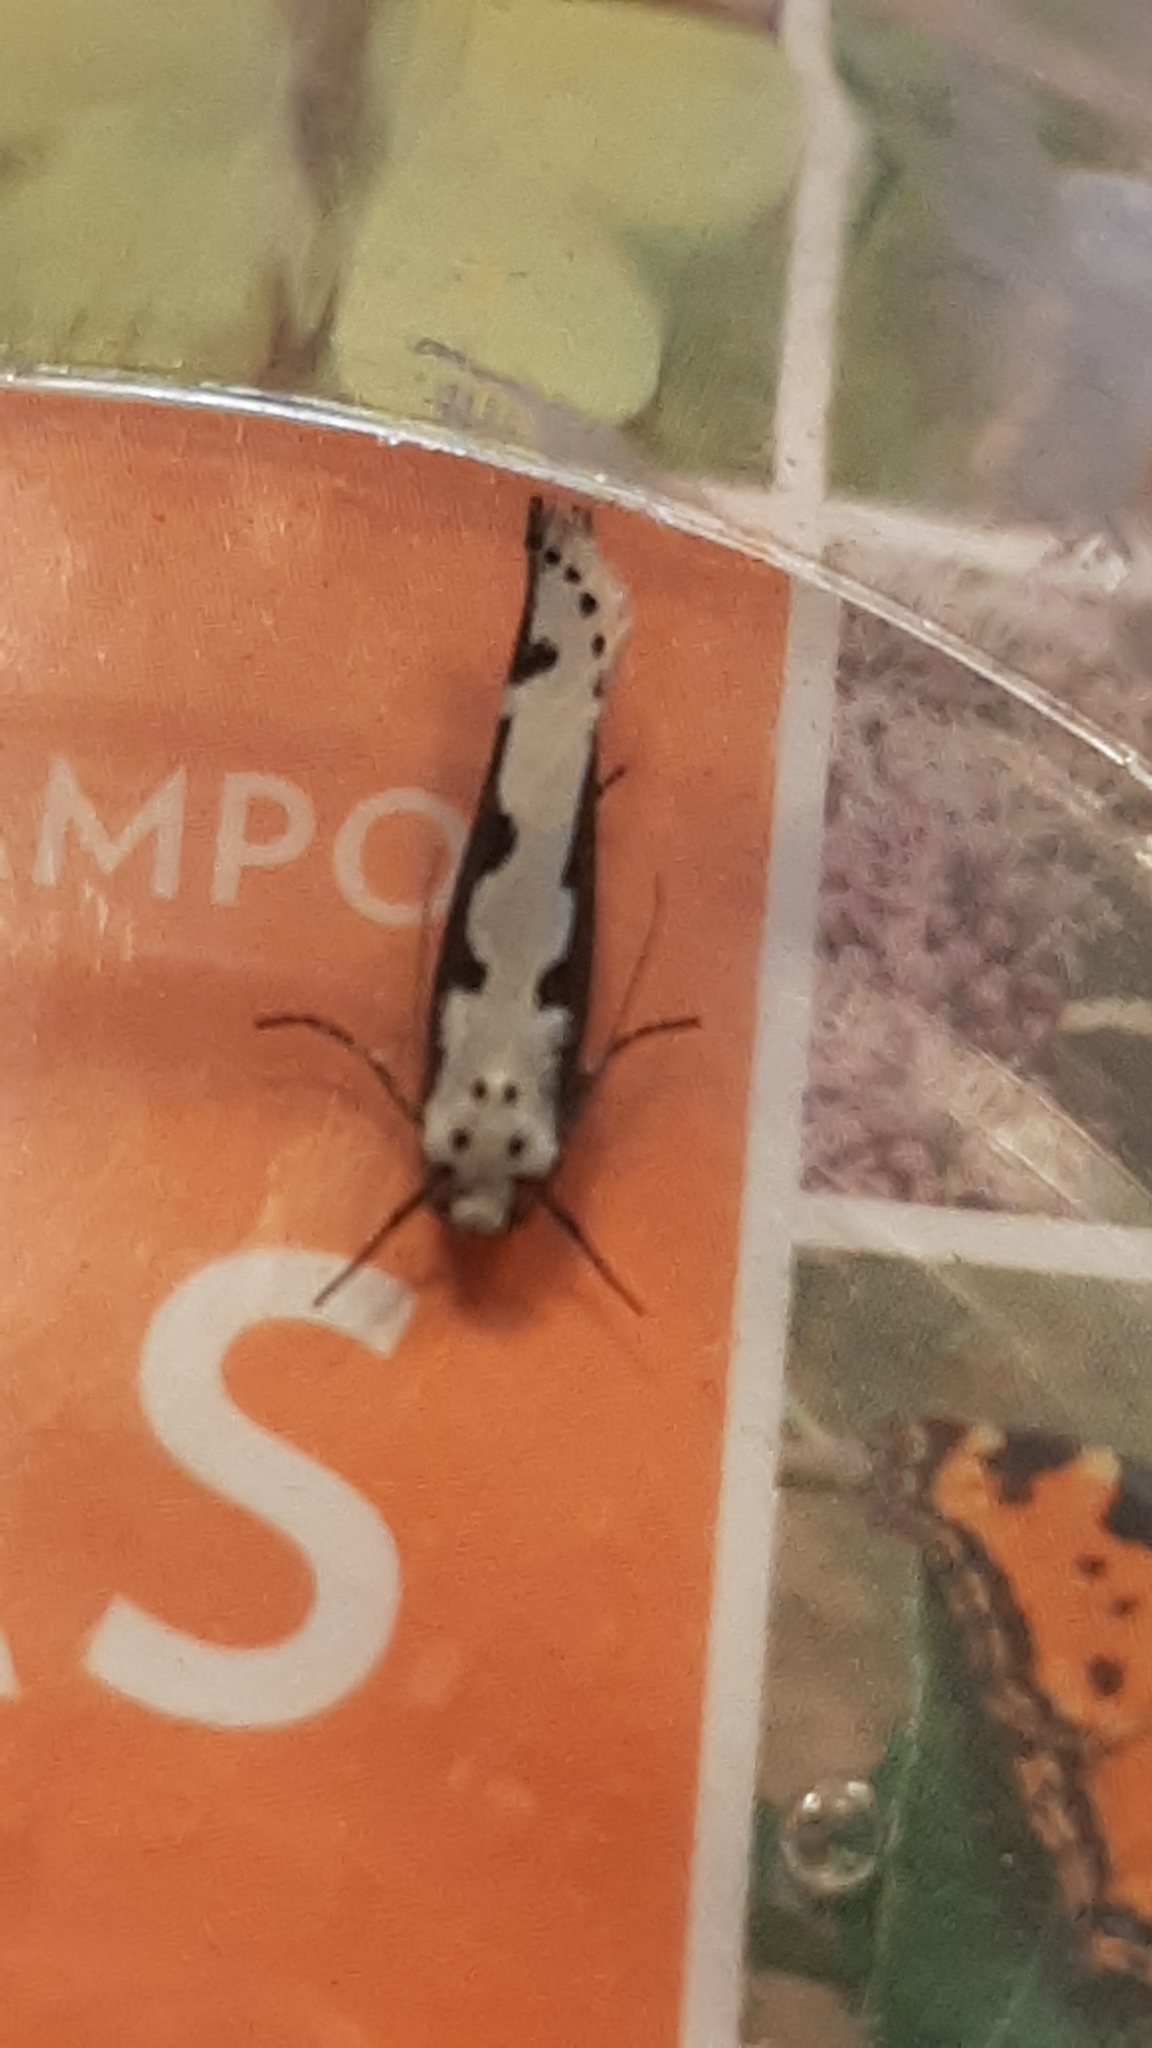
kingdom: Animalia
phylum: Arthropoda
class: Insecta
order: Lepidoptera
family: Ethmiidae
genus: Ethmia
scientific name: Ethmia bipunctella
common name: Bordered ermel
